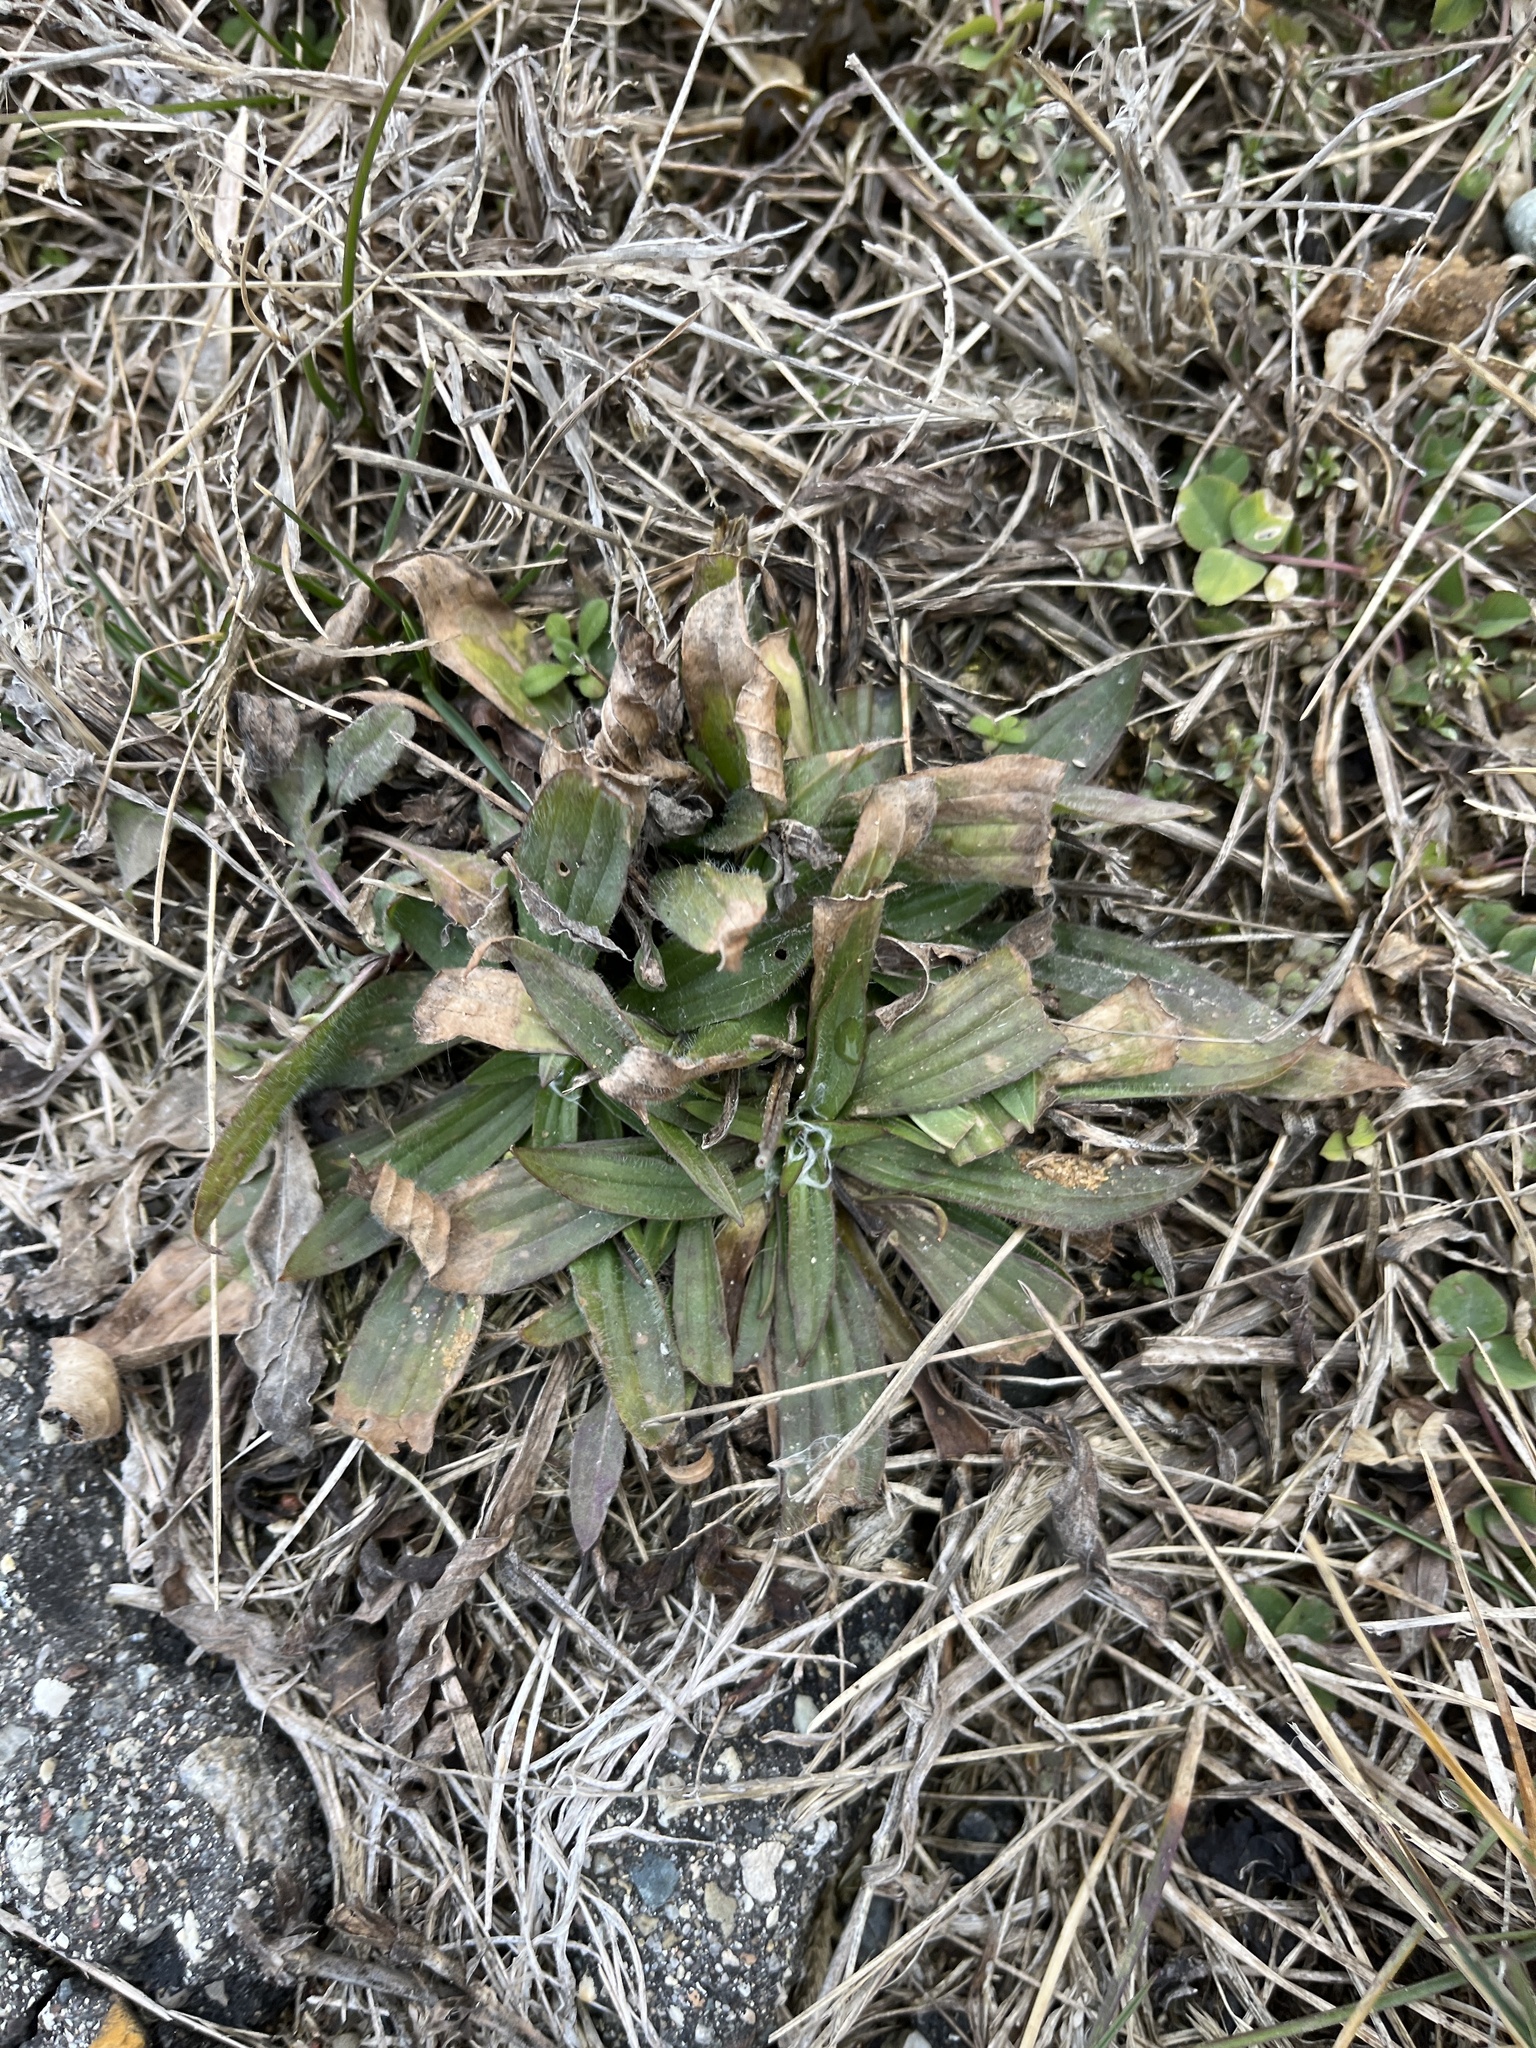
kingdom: Plantae
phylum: Tracheophyta
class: Magnoliopsida
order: Lamiales
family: Plantaginaceae
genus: Plantago
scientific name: Plantago lanceolata
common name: Ribwort plantain
